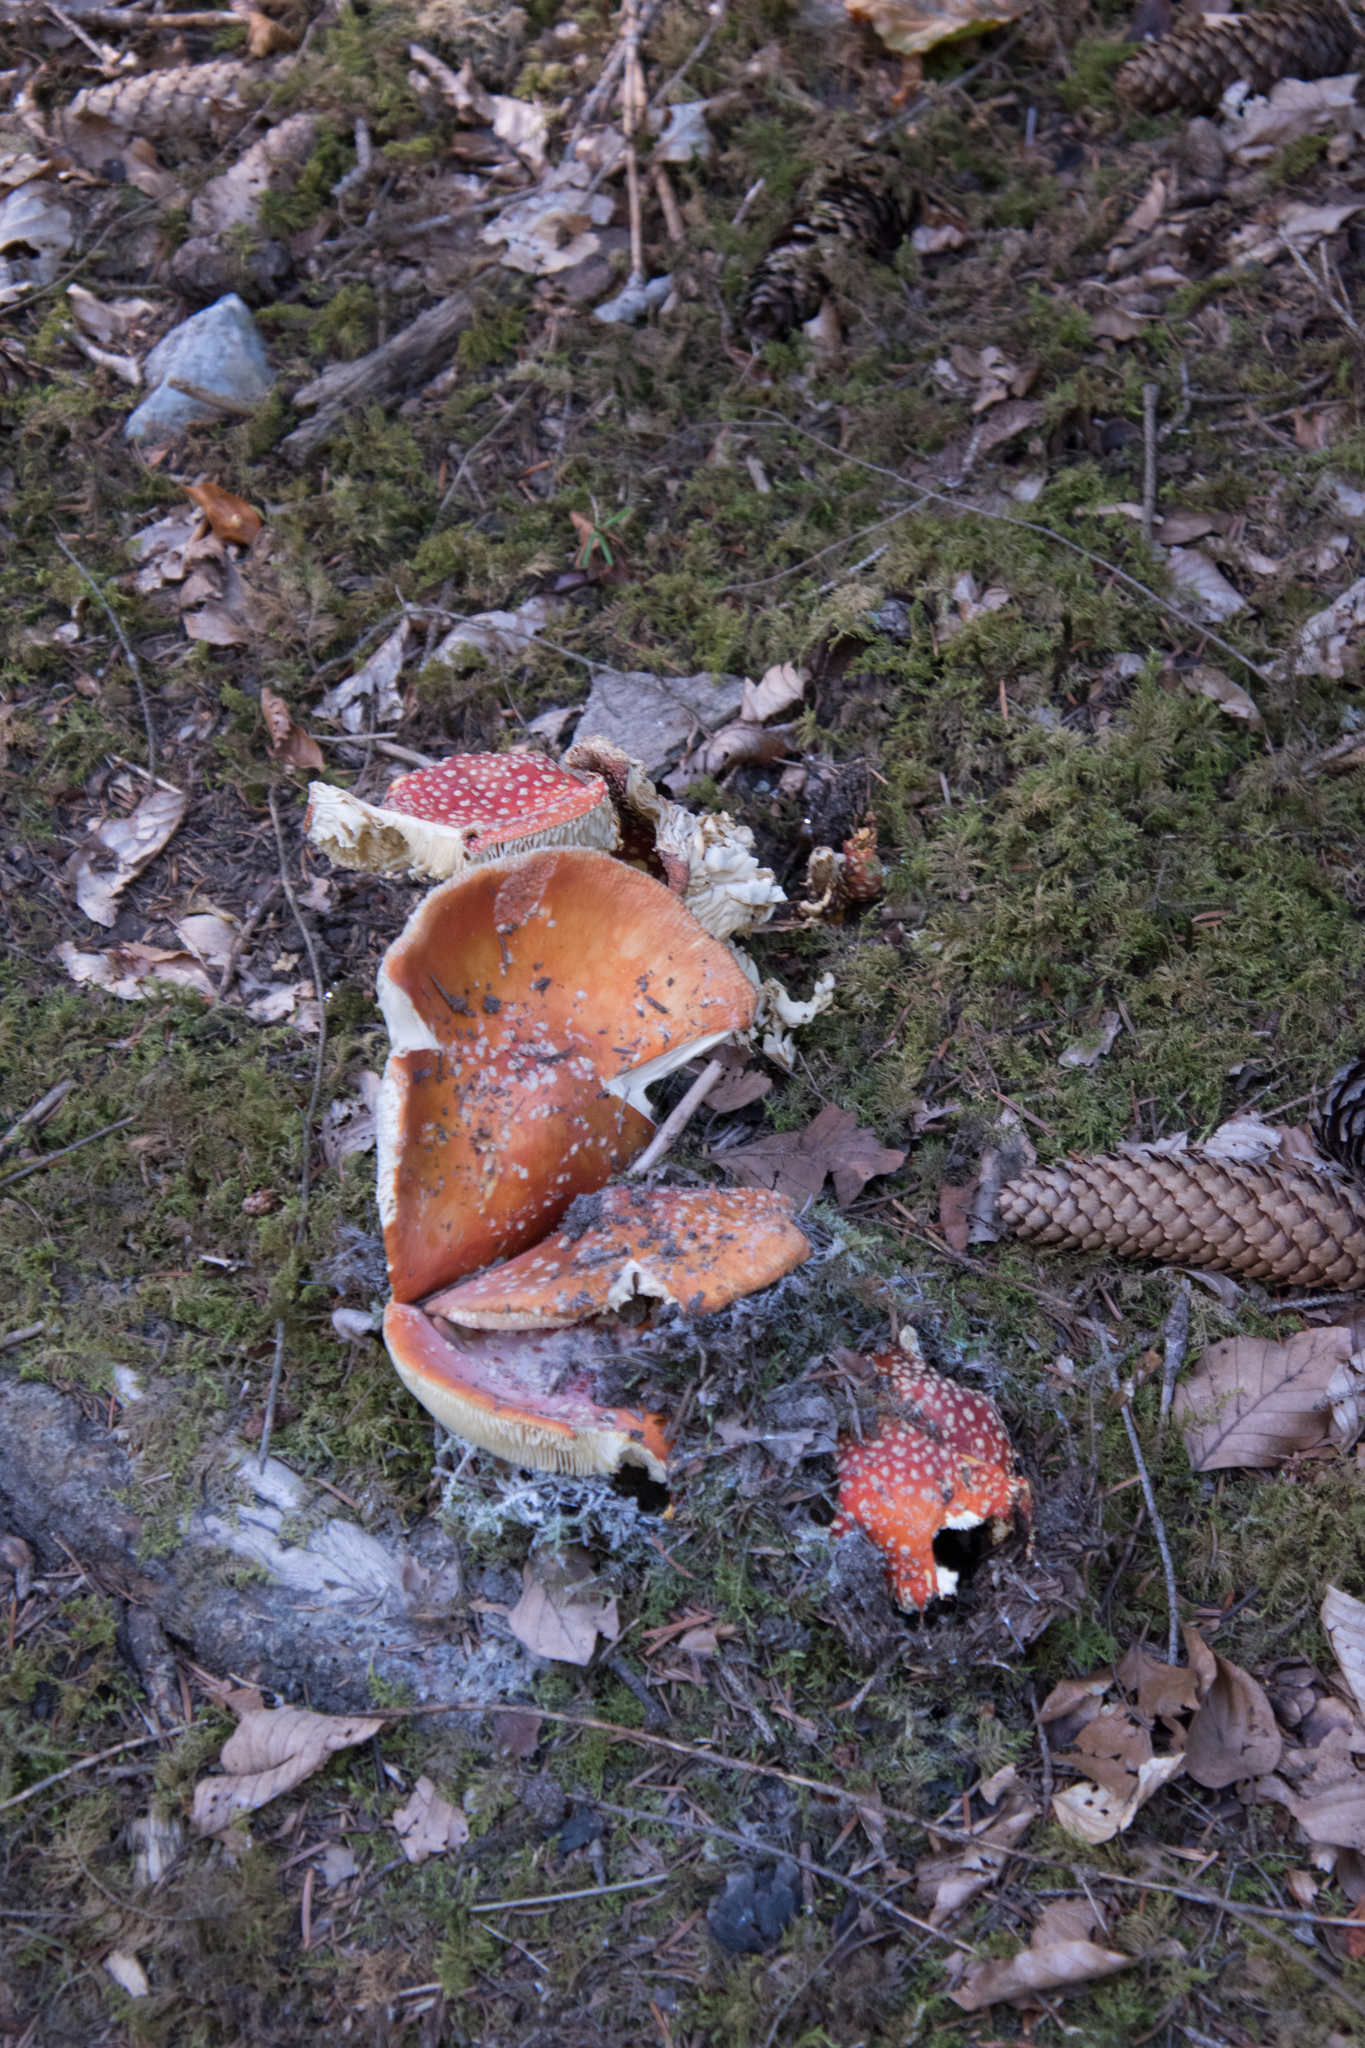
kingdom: Fungi
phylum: Basidiomycota
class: Agaricomycetes
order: Agaricales
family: Amanitaceae
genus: Amanita
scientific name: Amanita muscaria
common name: Fly agaric
